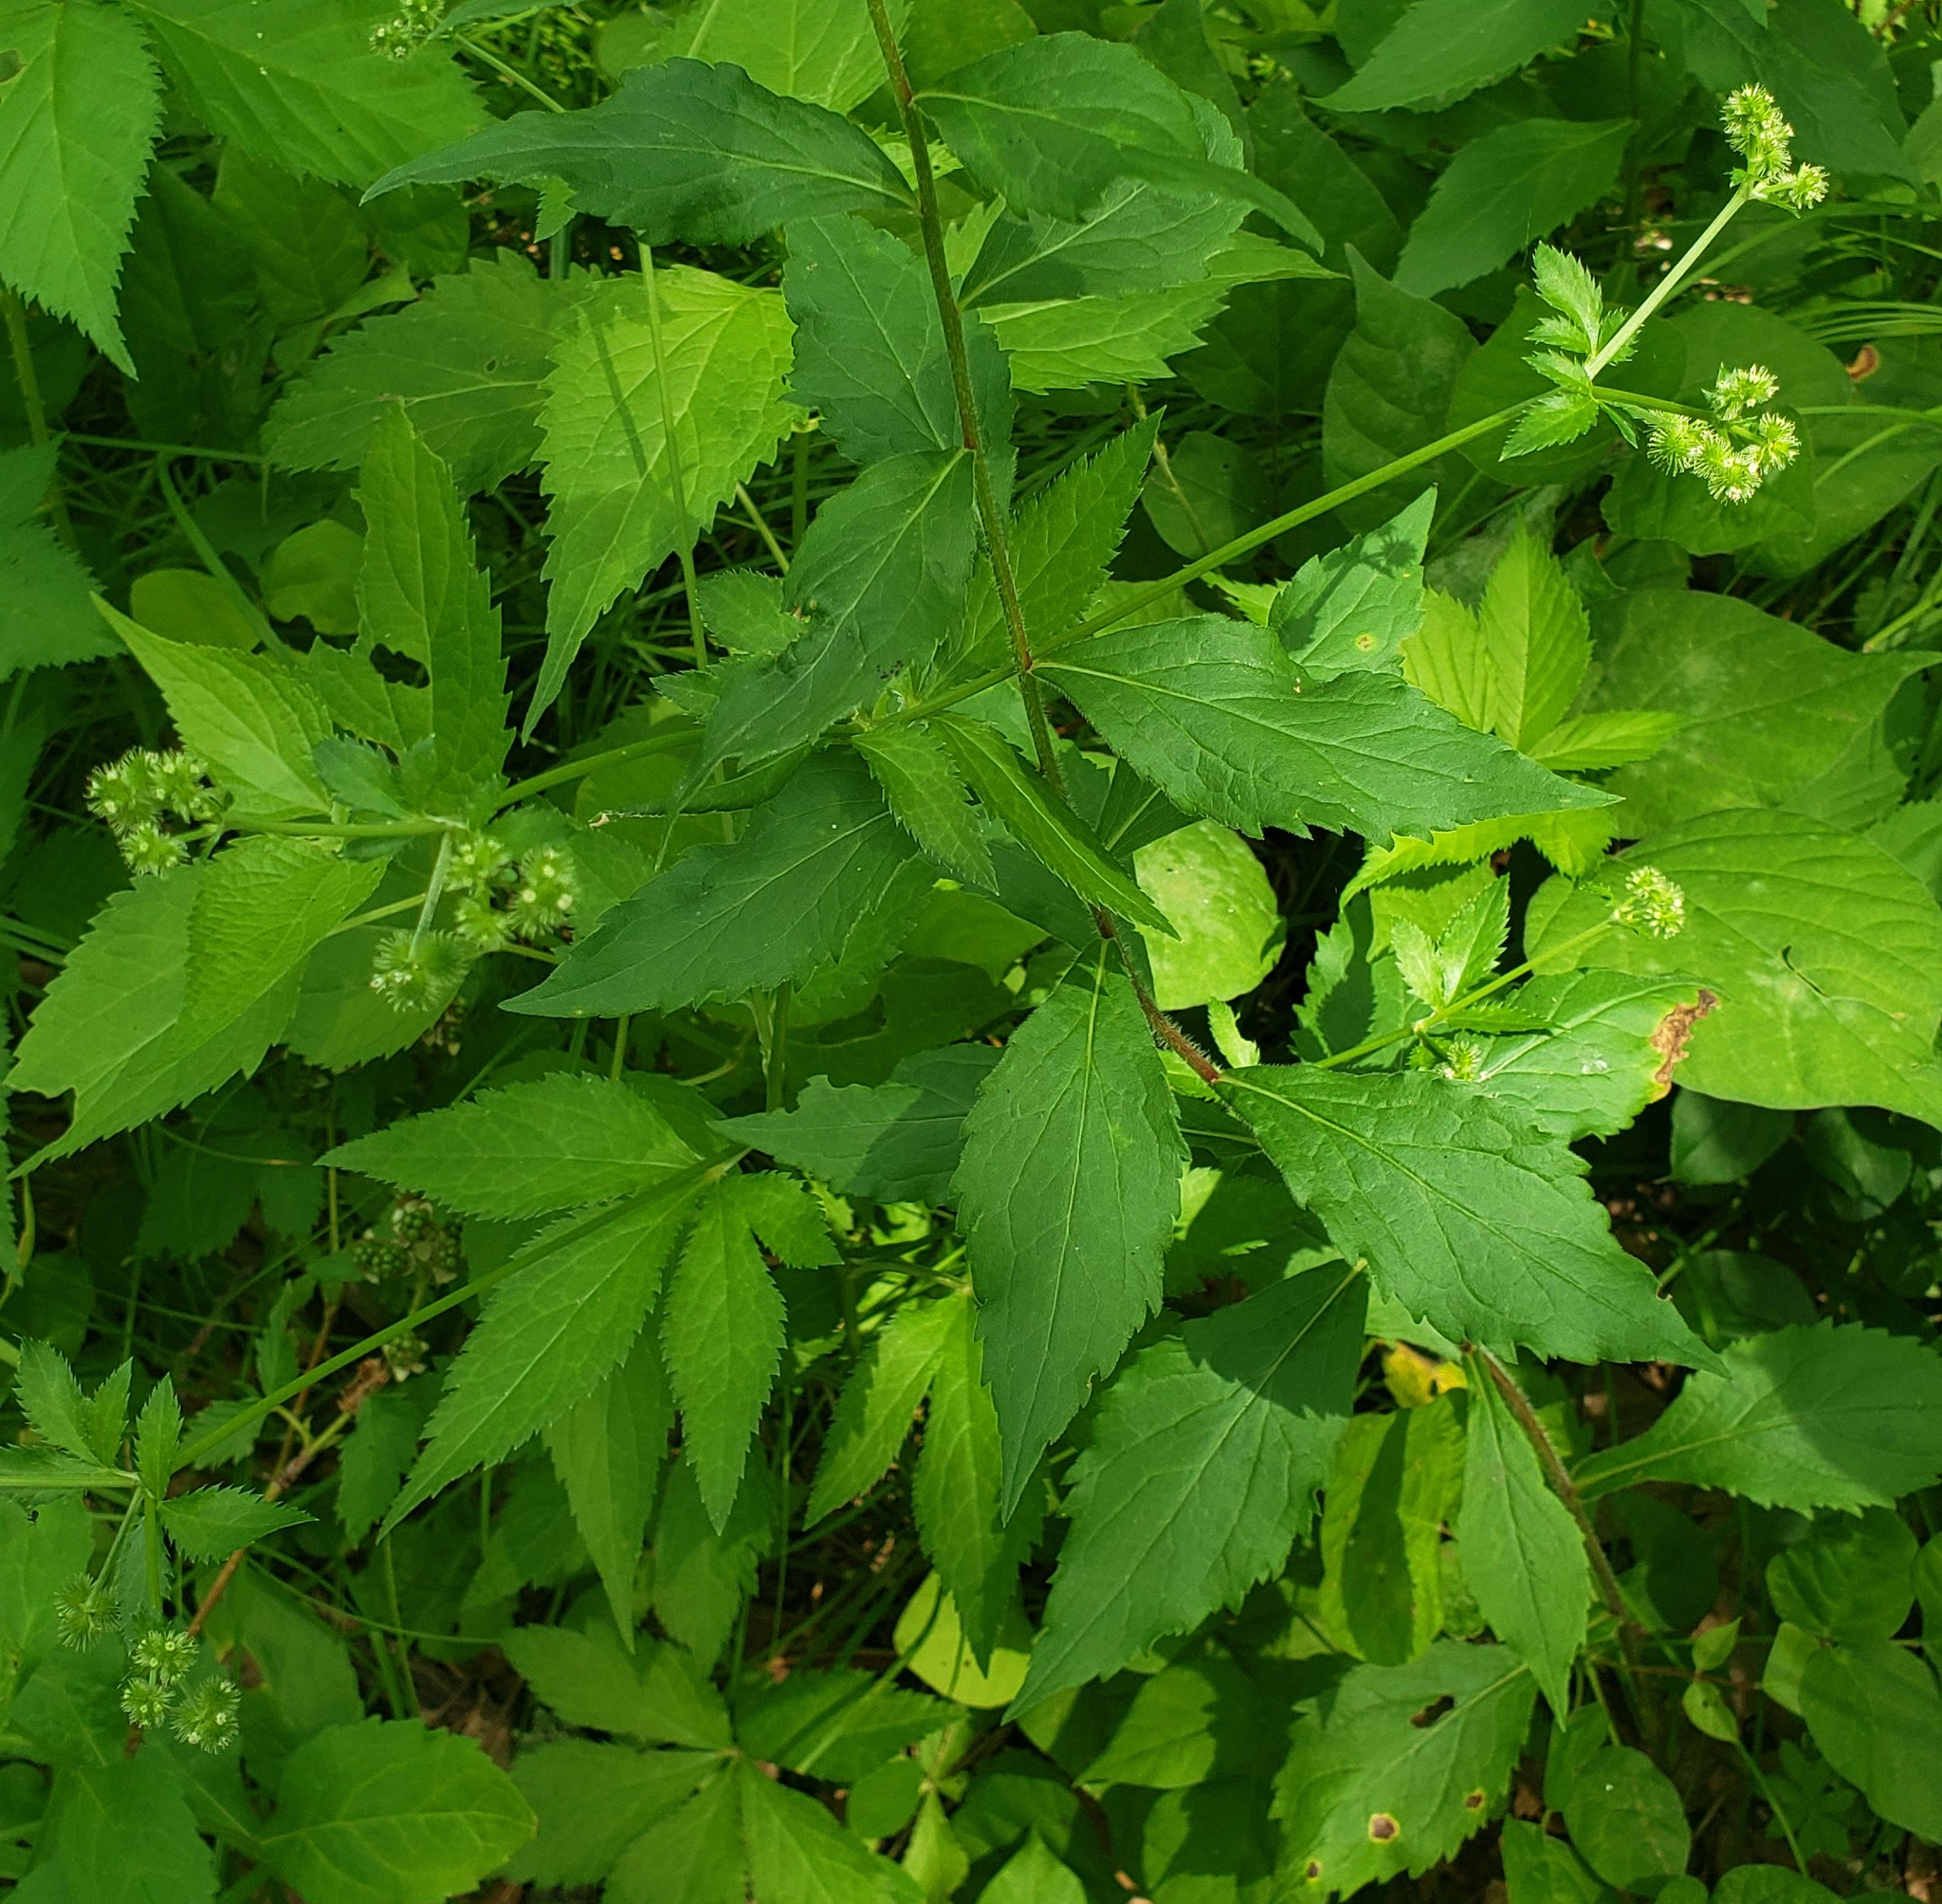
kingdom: Plantae
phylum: Tracheophyta
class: Magnoliopsida
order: Apiales
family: Apiaceae
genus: Sanicula
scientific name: Sanicula canadensis
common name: Canada sanicle
